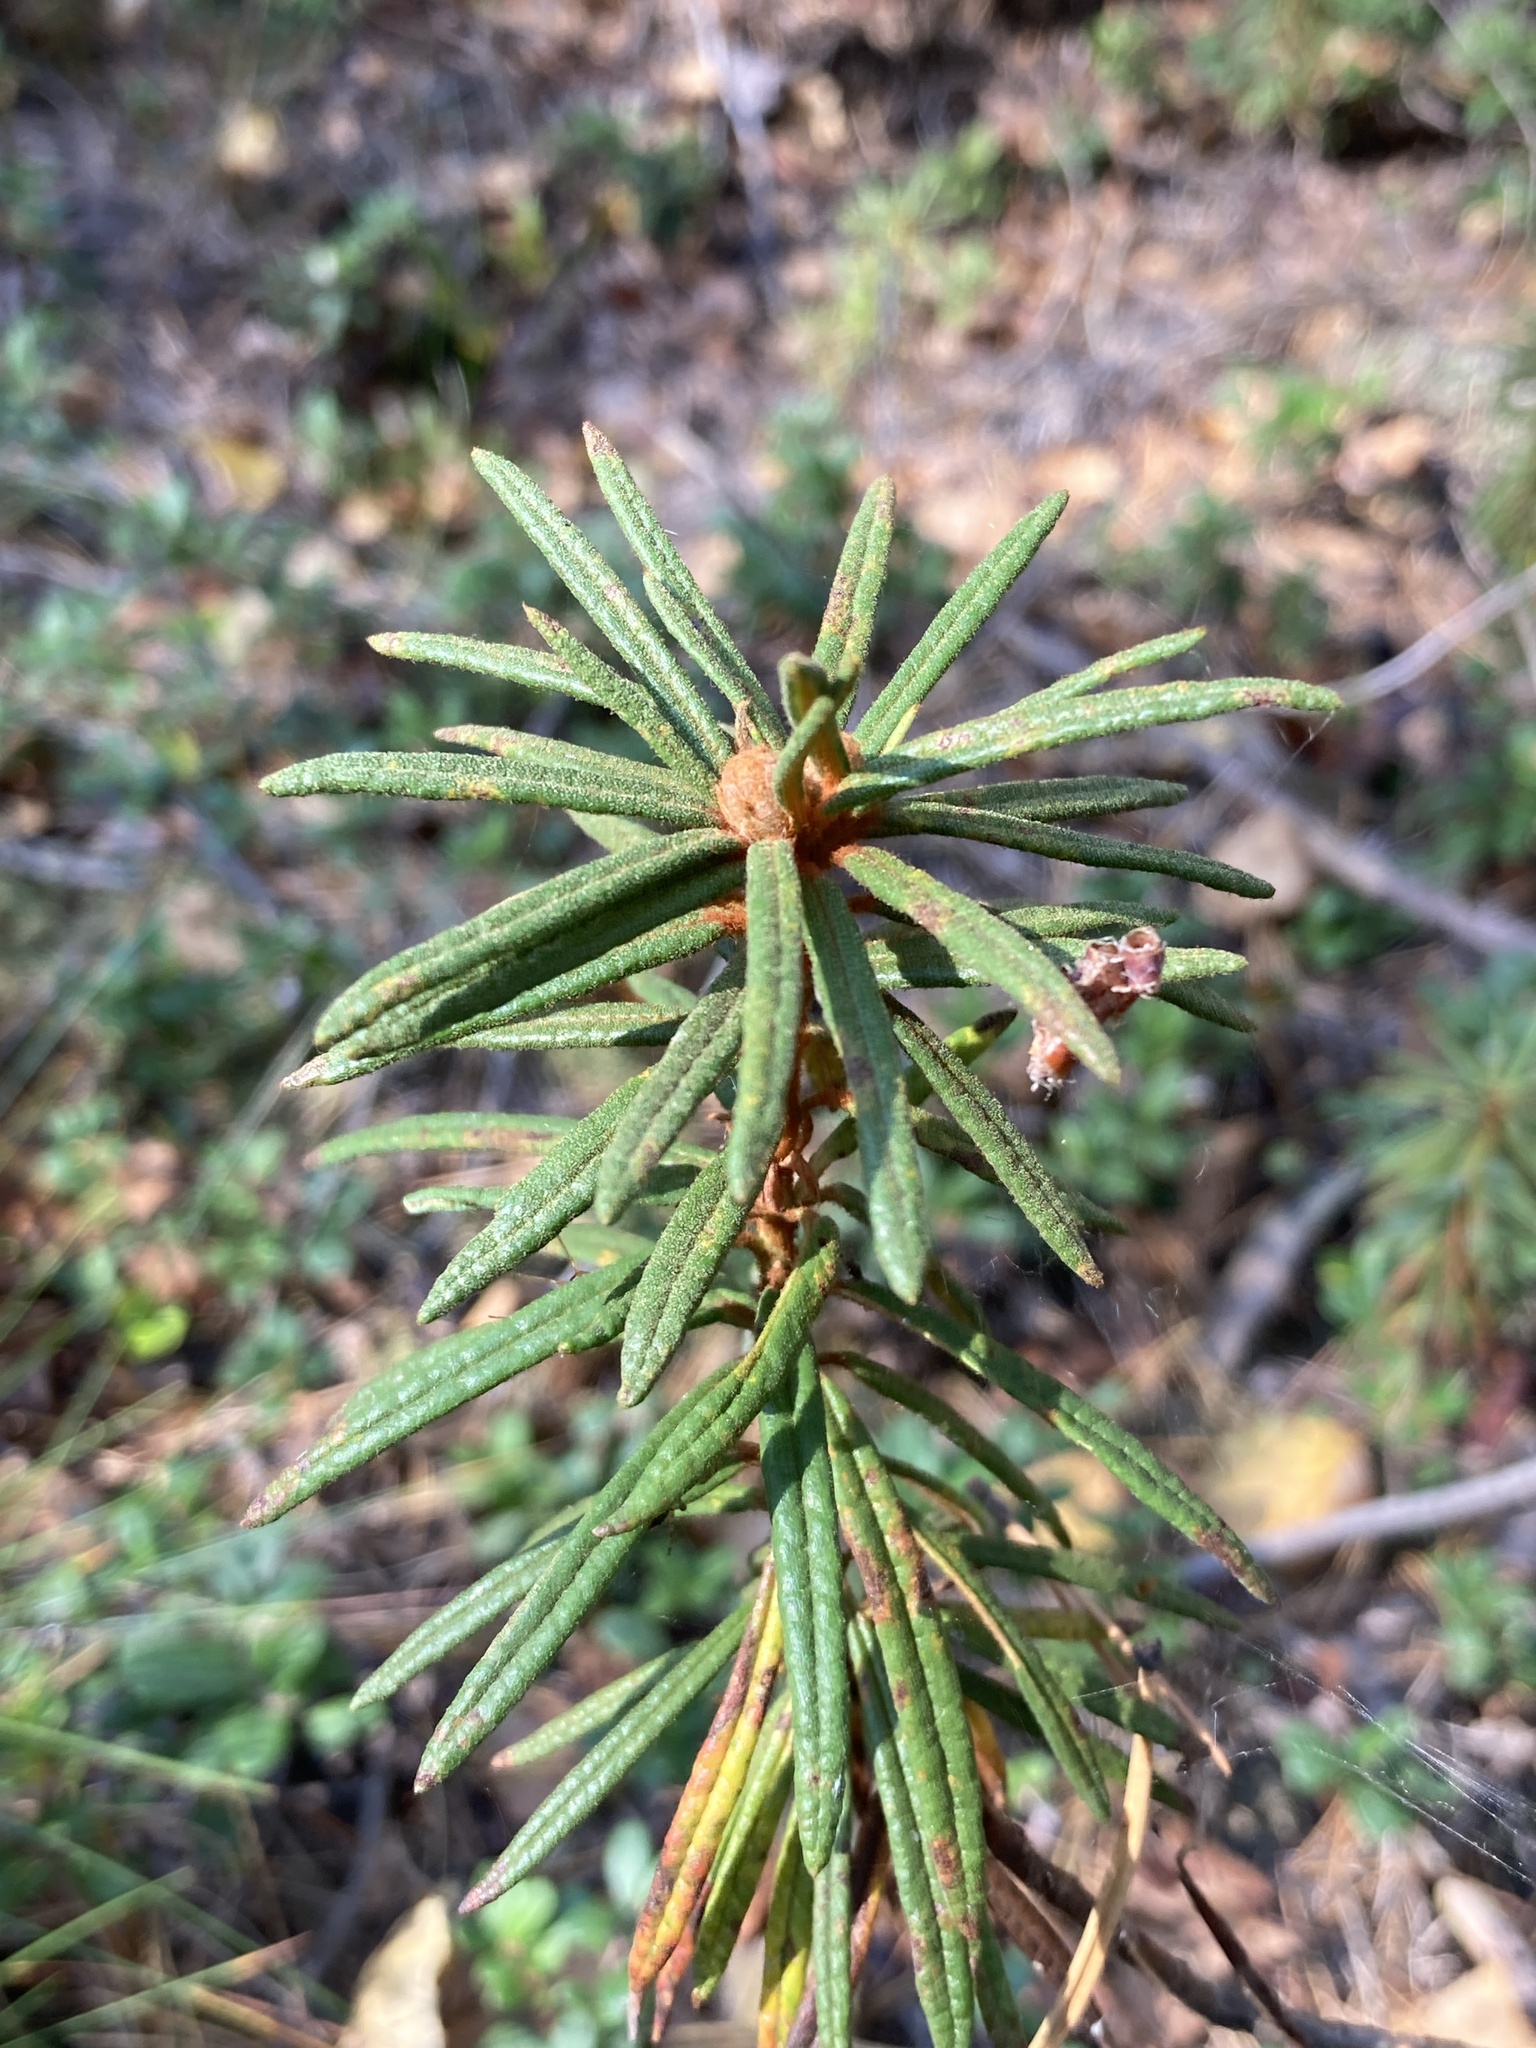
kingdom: Plantae
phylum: Tracheophyta
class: Magnoliopsida
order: Ericales
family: Ericaceae
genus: Rhododendron
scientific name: Rhododendron tomentosum
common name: Marsh labrador tea
